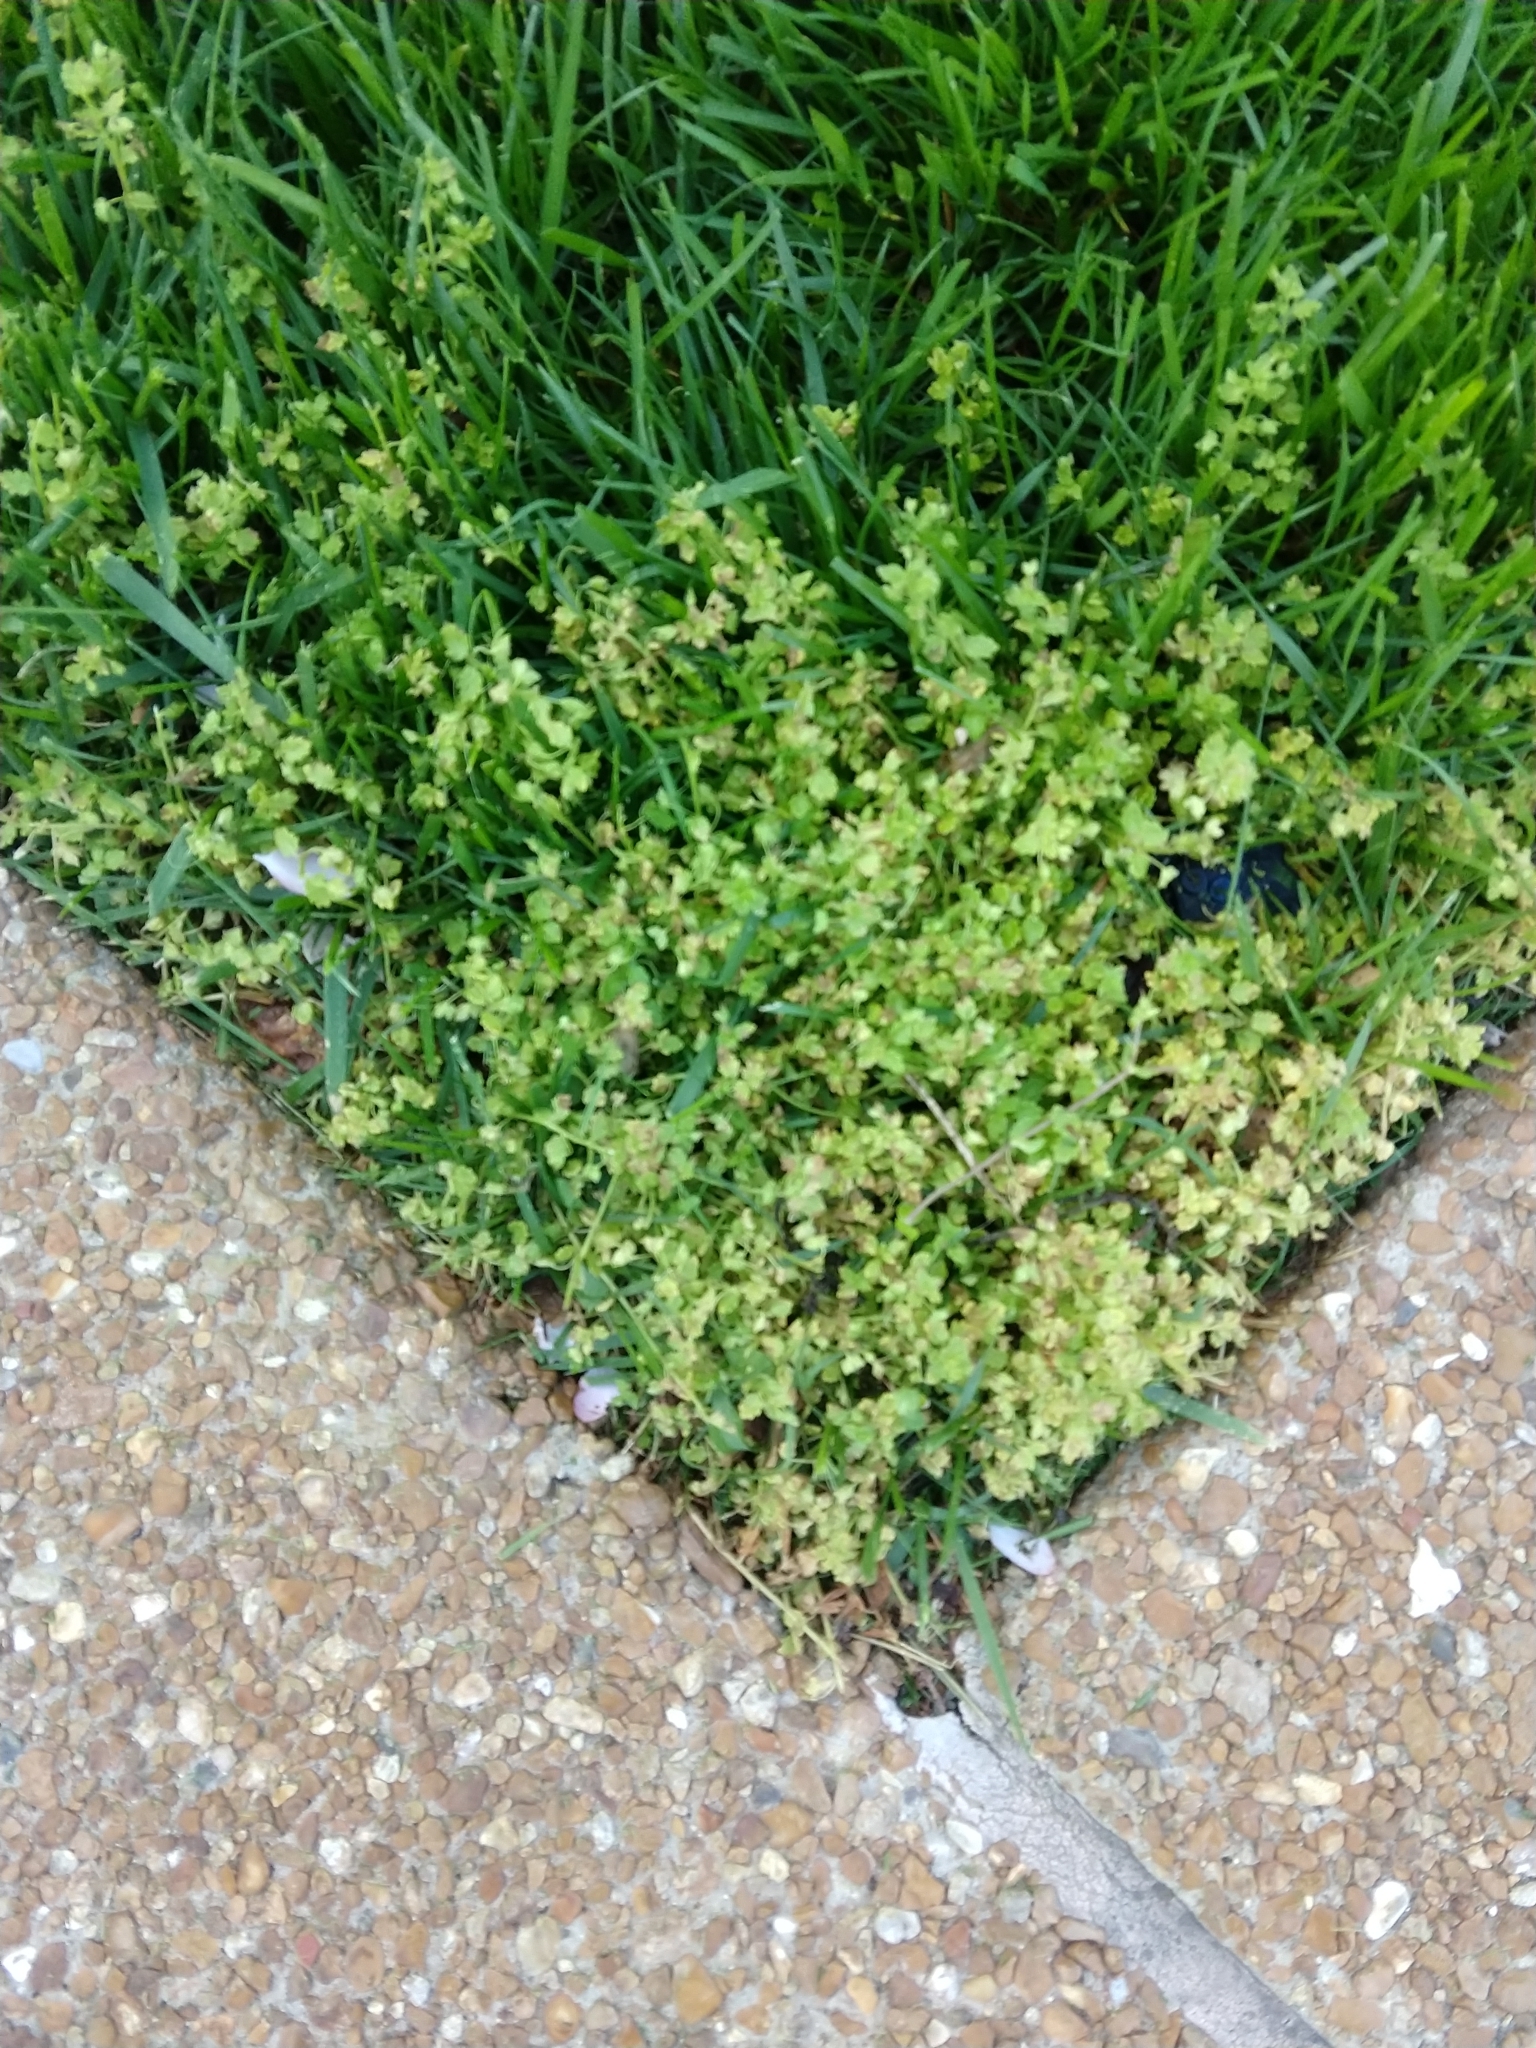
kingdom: Plantae
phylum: Tracheophyta
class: Magnoliopsida
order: Lamiales
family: Plantaginaceae
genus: Veronica
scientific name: Veronica polita
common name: Grey field-speedwell
